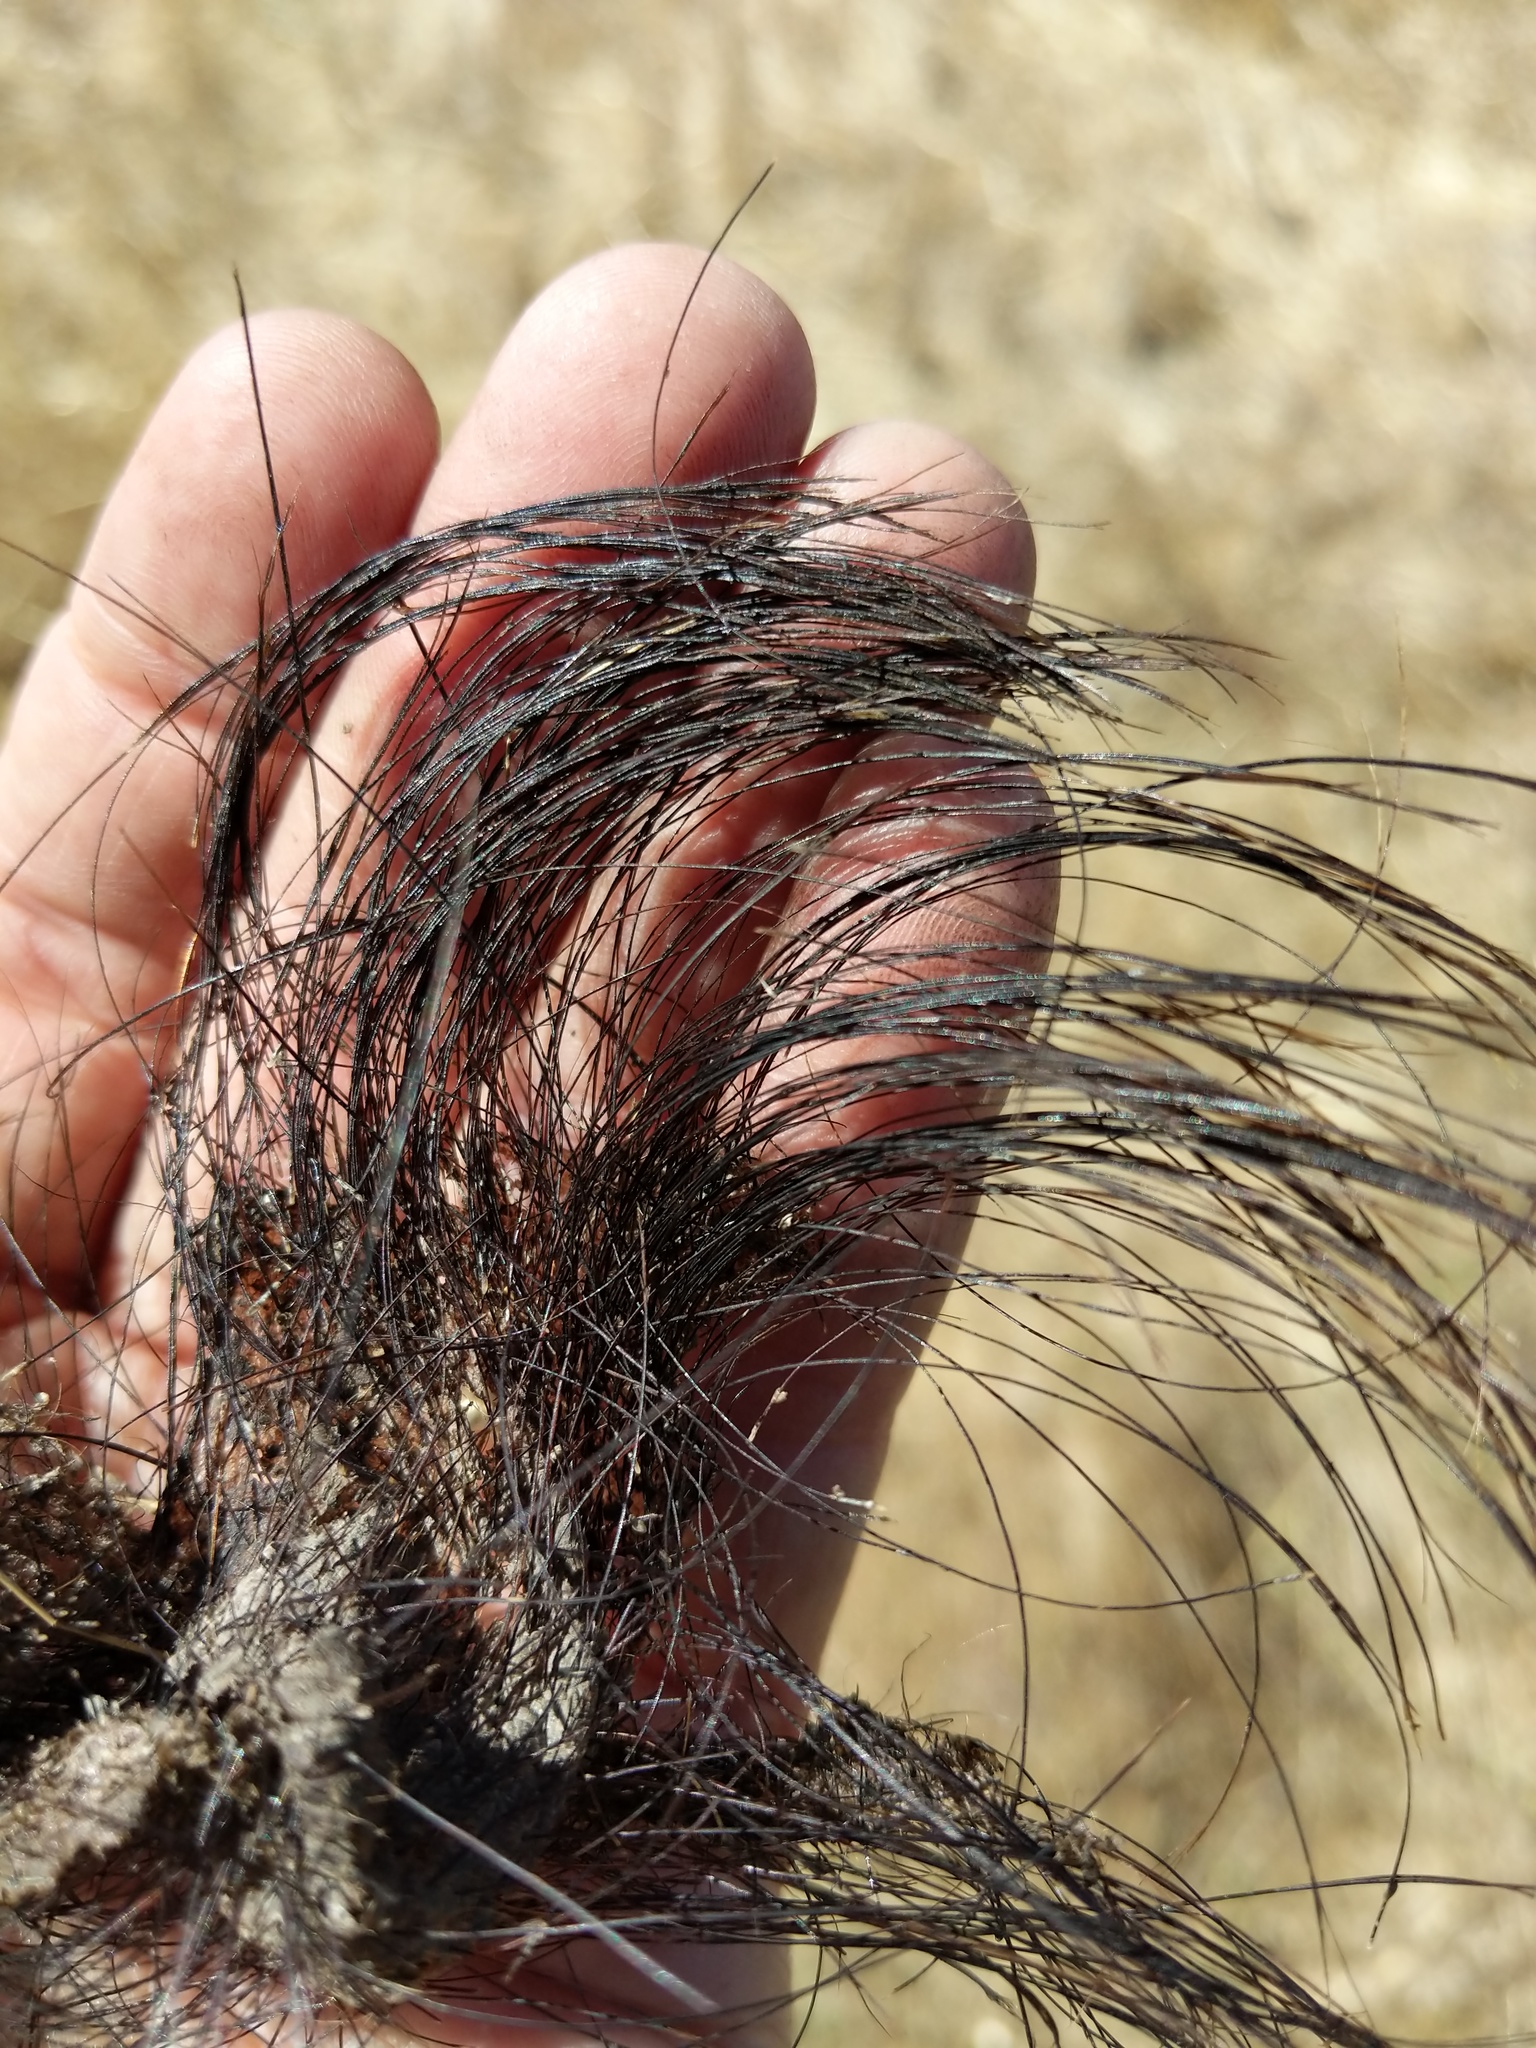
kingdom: Animalia
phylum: Chordata
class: Mammalia
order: Artiodactyla
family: Suidae
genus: Sus
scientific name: Sus scrofa
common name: Wild boar
